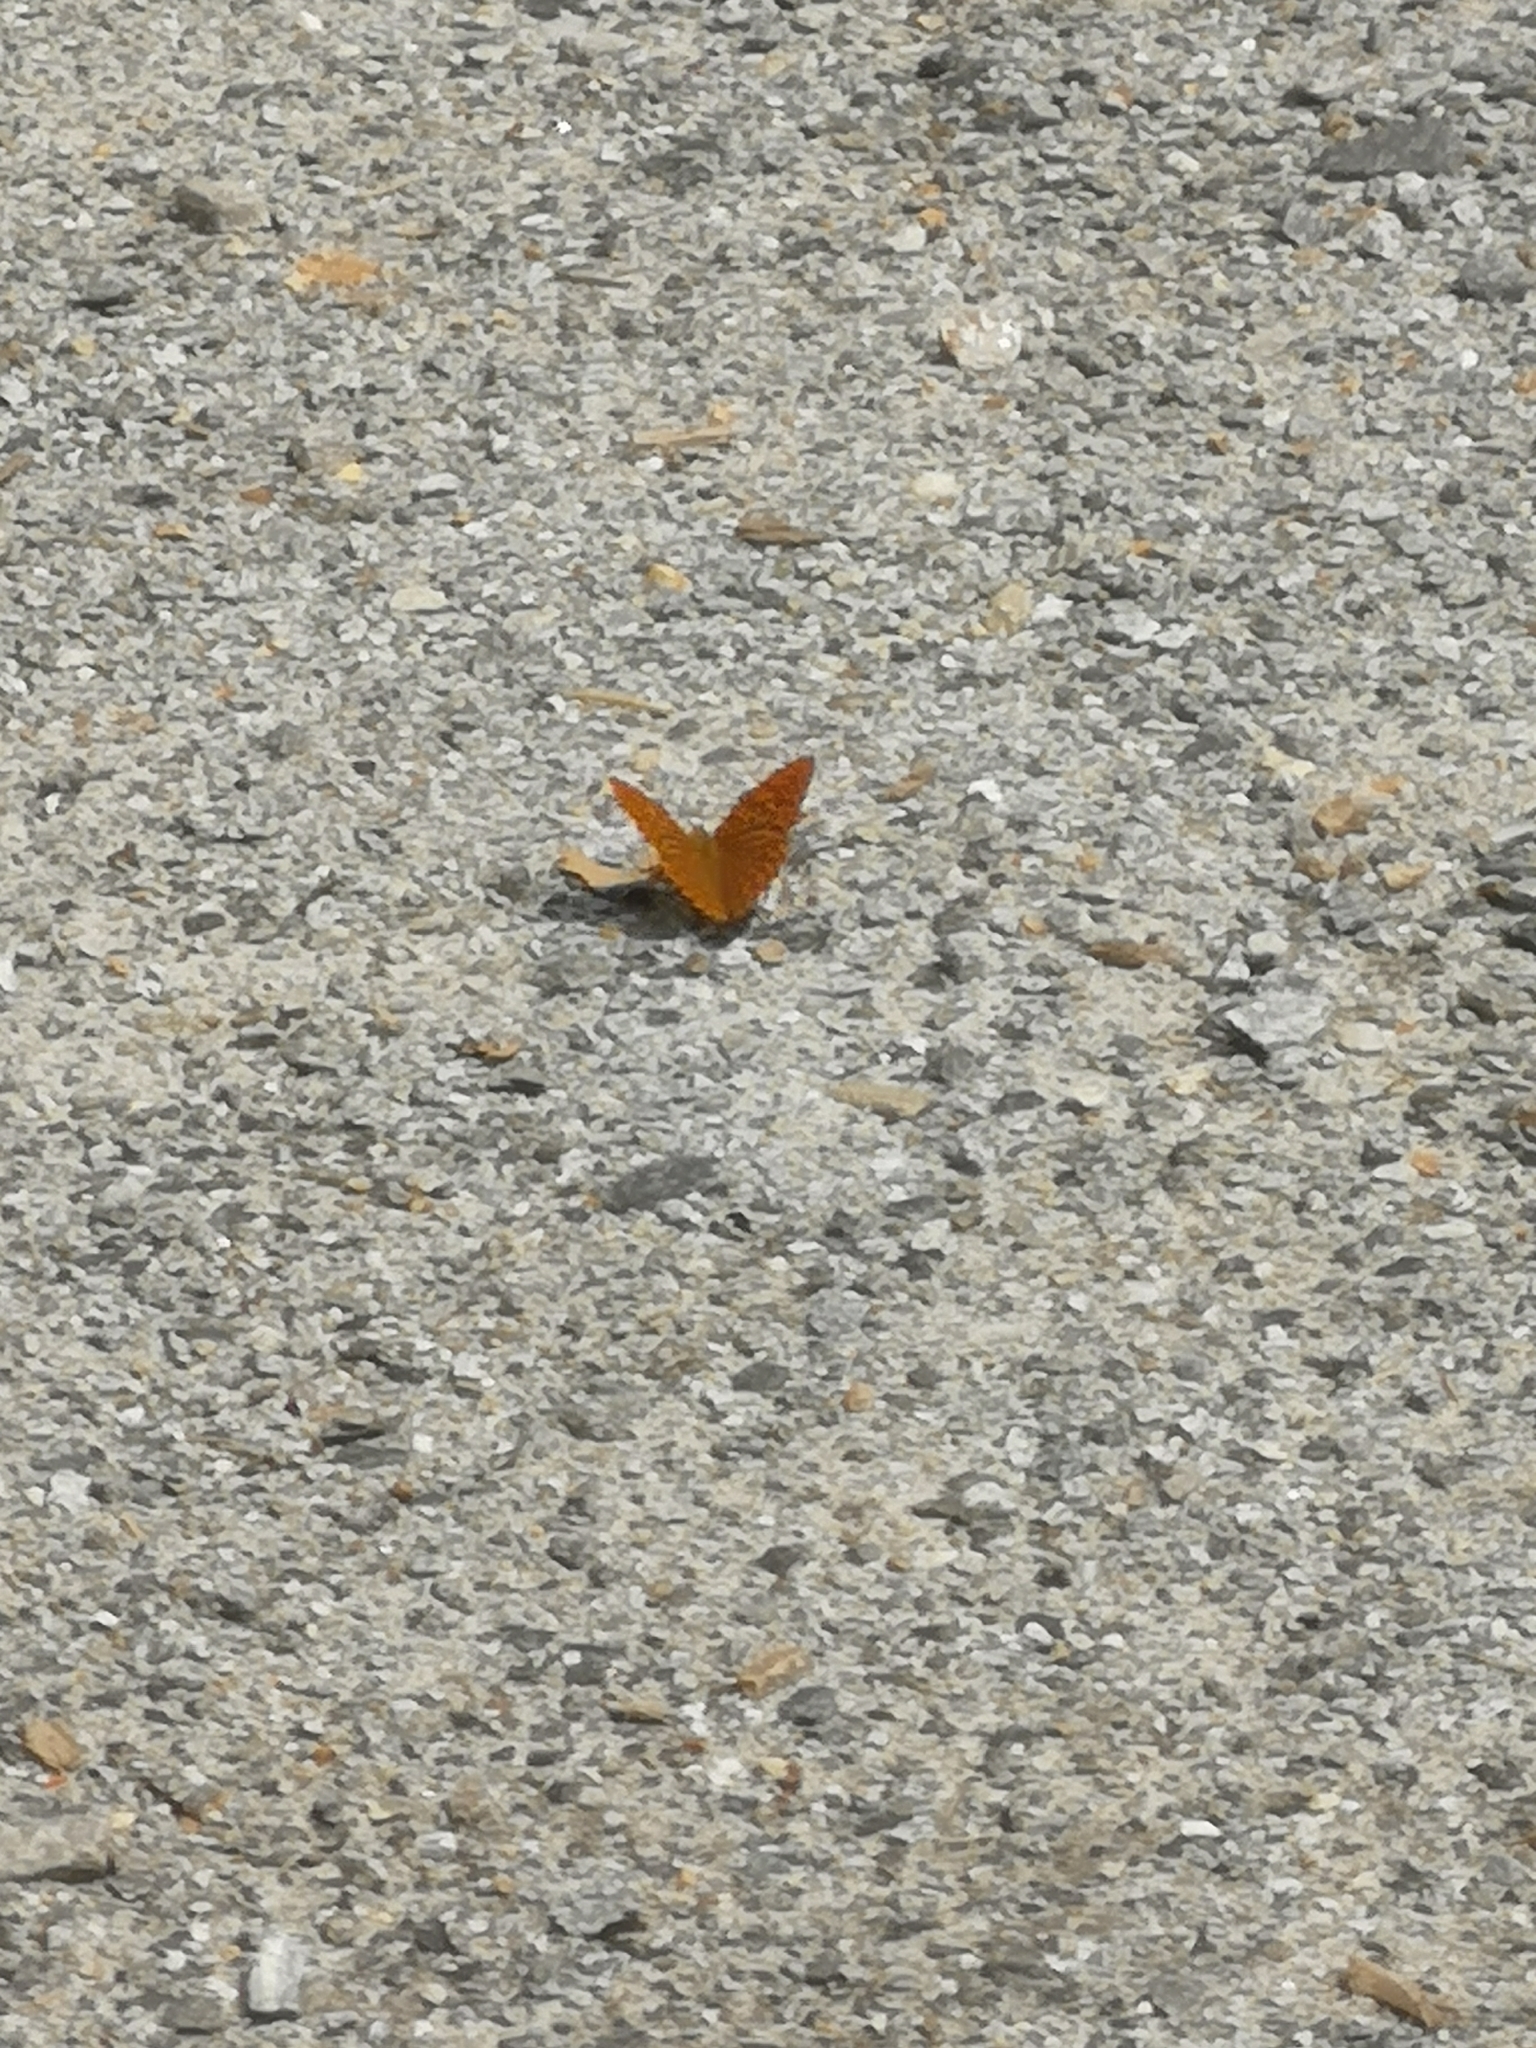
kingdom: Animalia
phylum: Arthropoda
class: Insecta
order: Lepidoptera
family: Nymphalidae
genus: Argynnis
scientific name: Argynnis paphia
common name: Silver-washed fritillary
